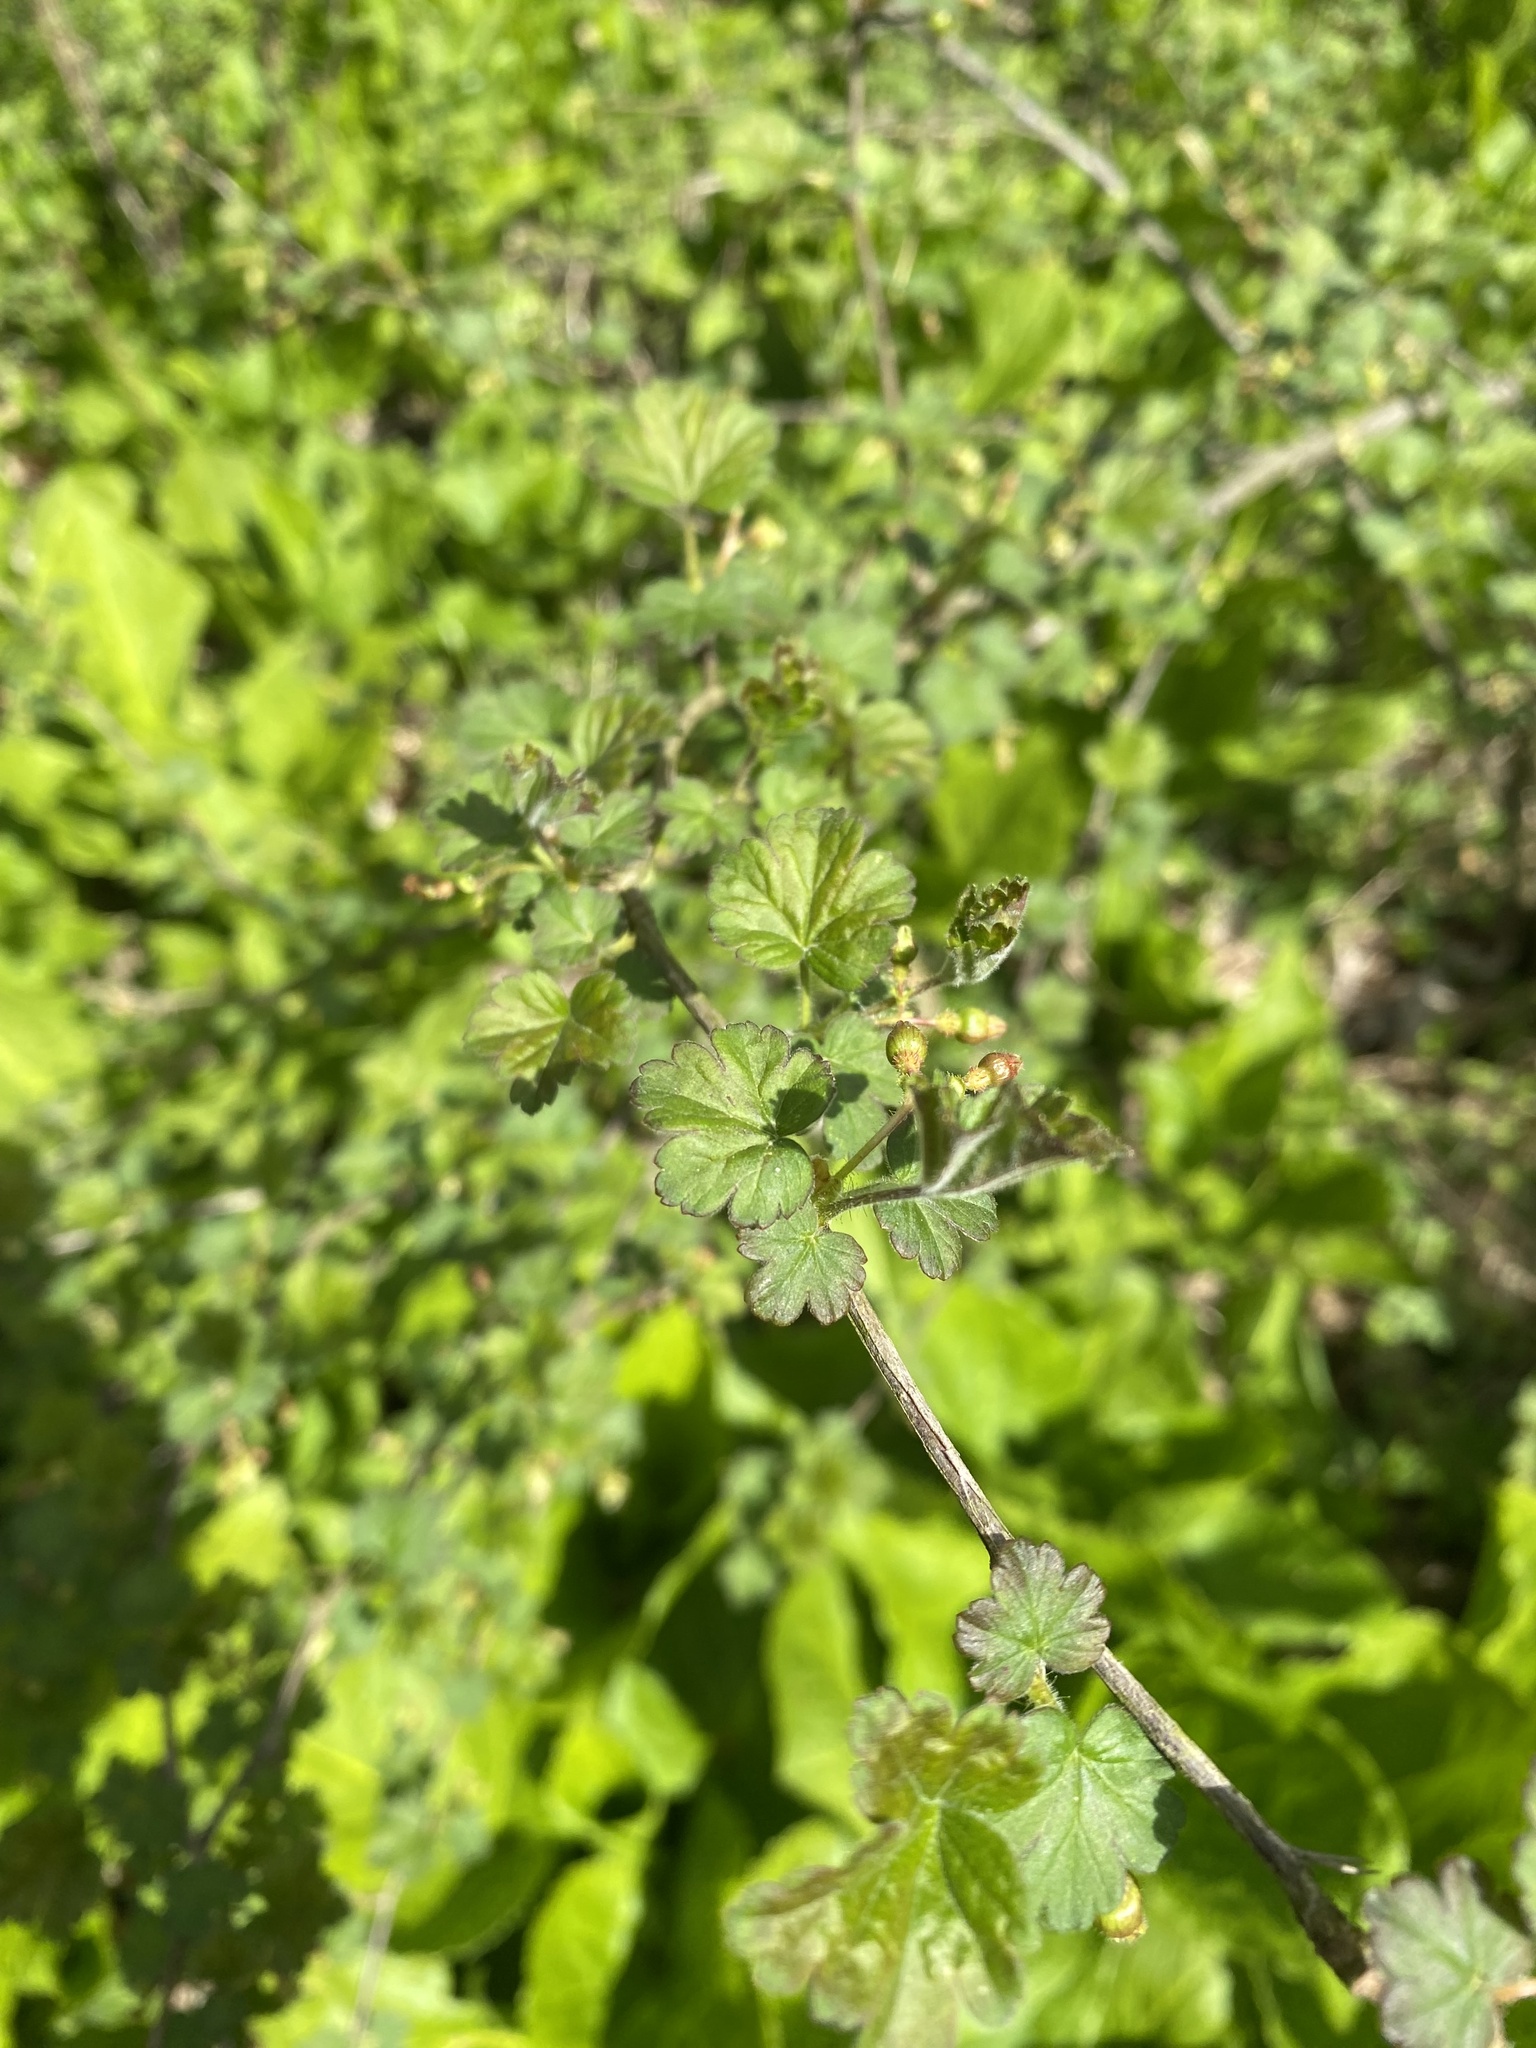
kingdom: Plantae
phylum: Tracheophyta
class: Magnoliopsida
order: Saxifragales
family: Grossulariaceae
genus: Ribes
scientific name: Ribes cynosbati
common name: American gooseberry
